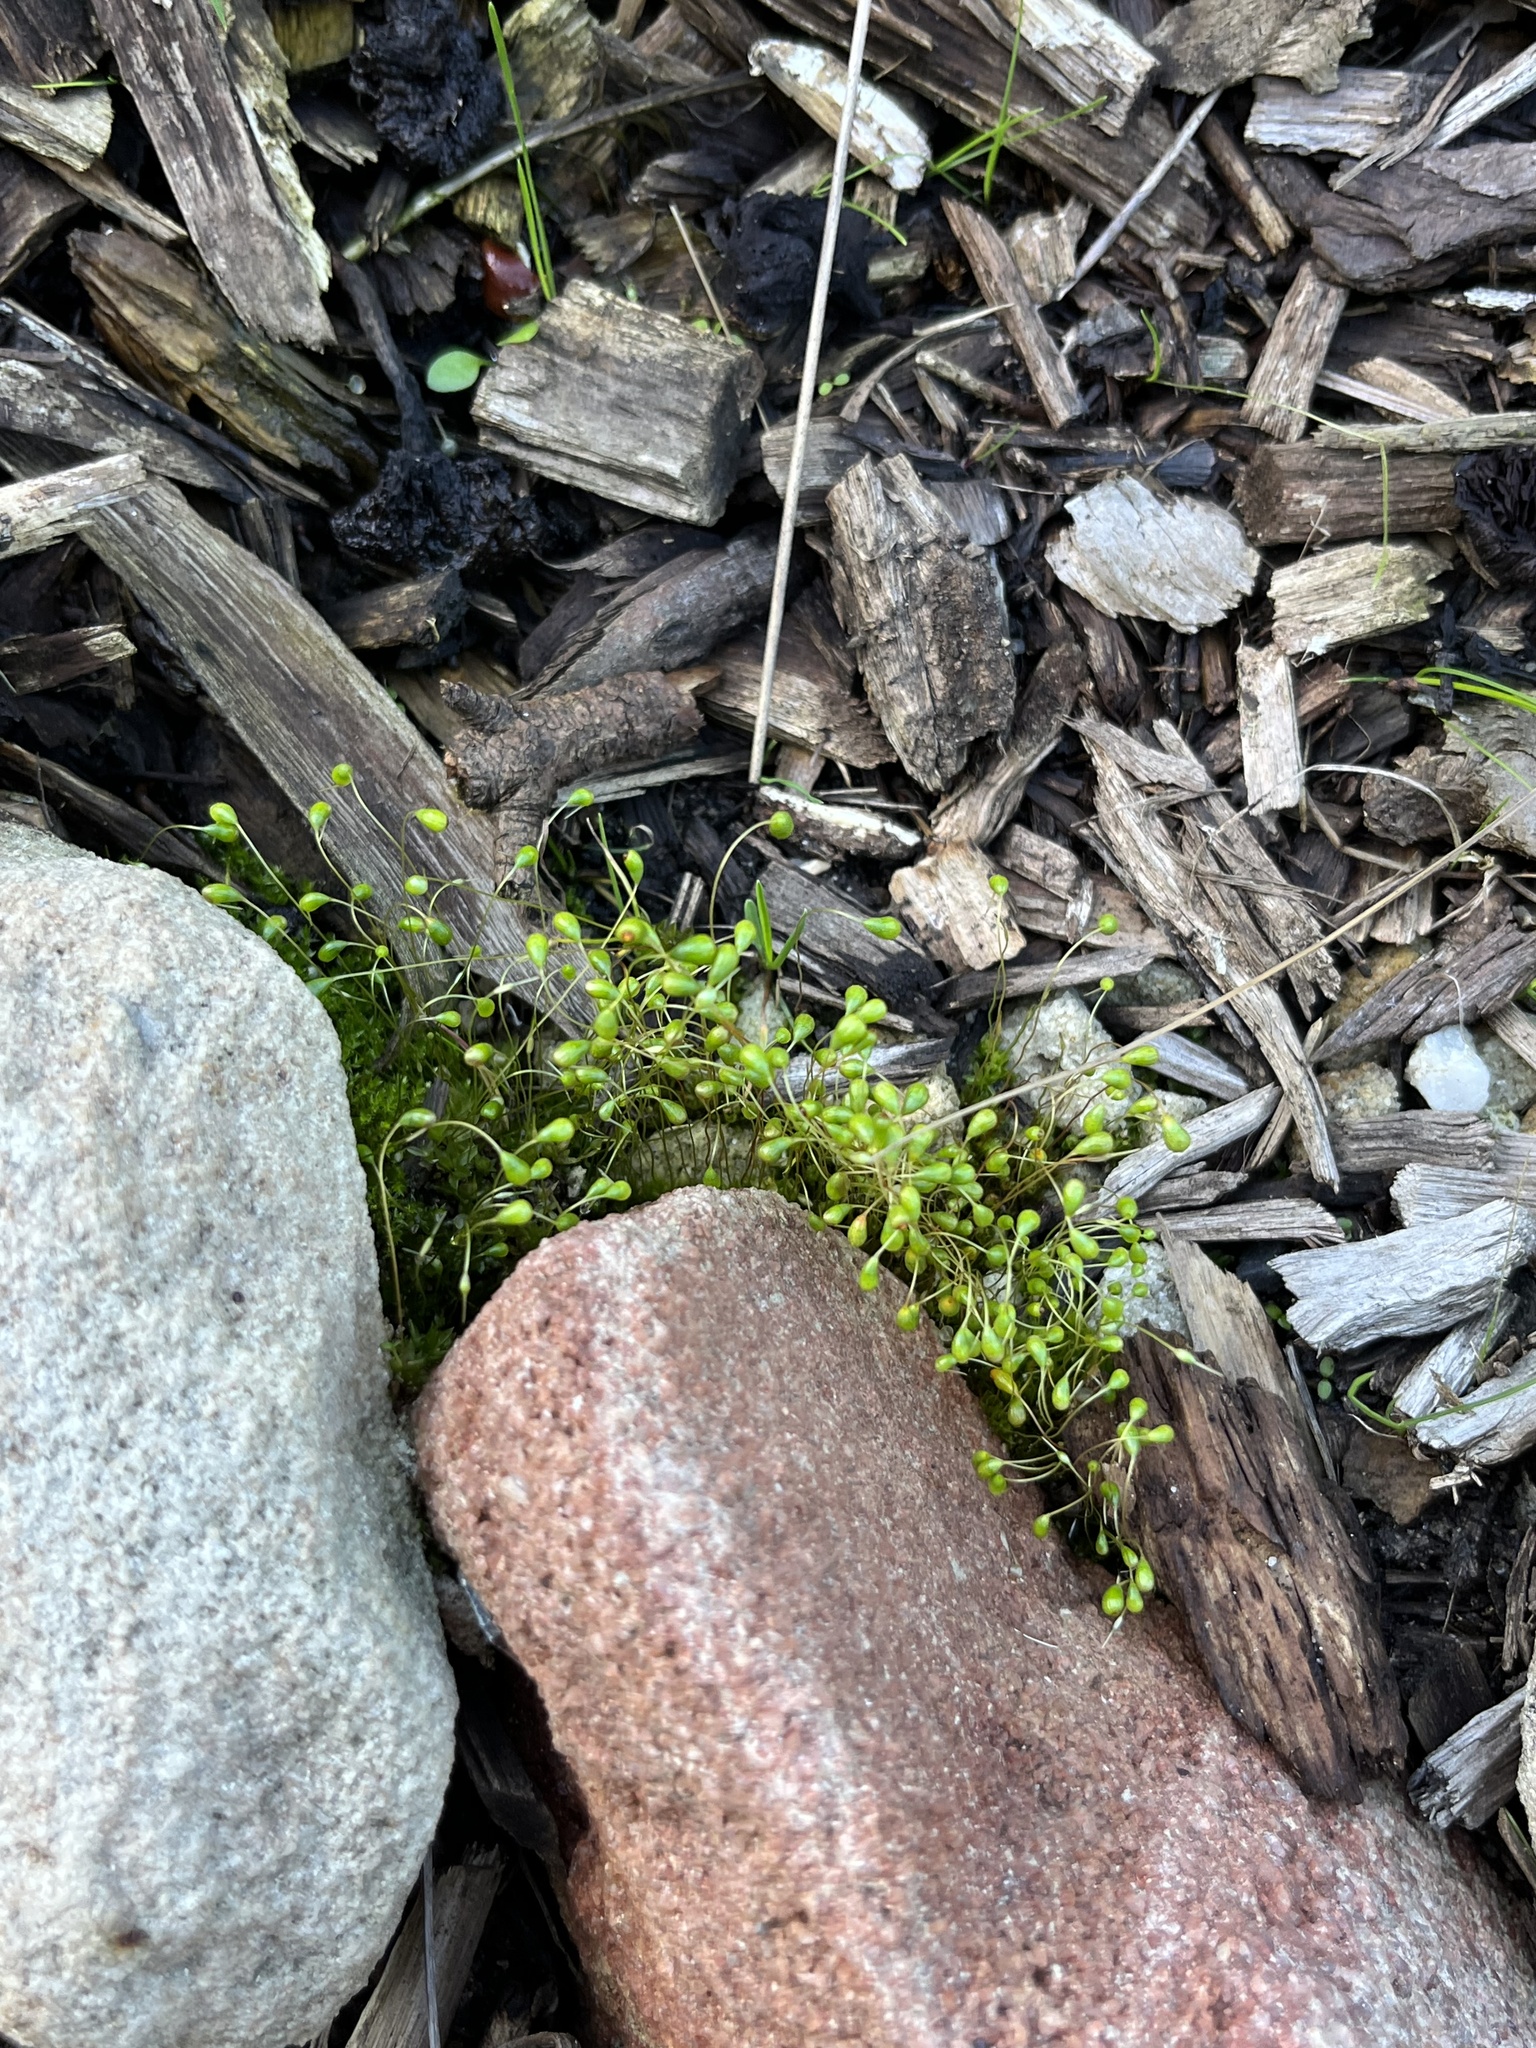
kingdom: Plantae
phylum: Bryophyta
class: Bryopsida
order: Funariales
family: Funariaceae
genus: Funaria
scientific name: Funaria hygrometrica
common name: Common cord moss
